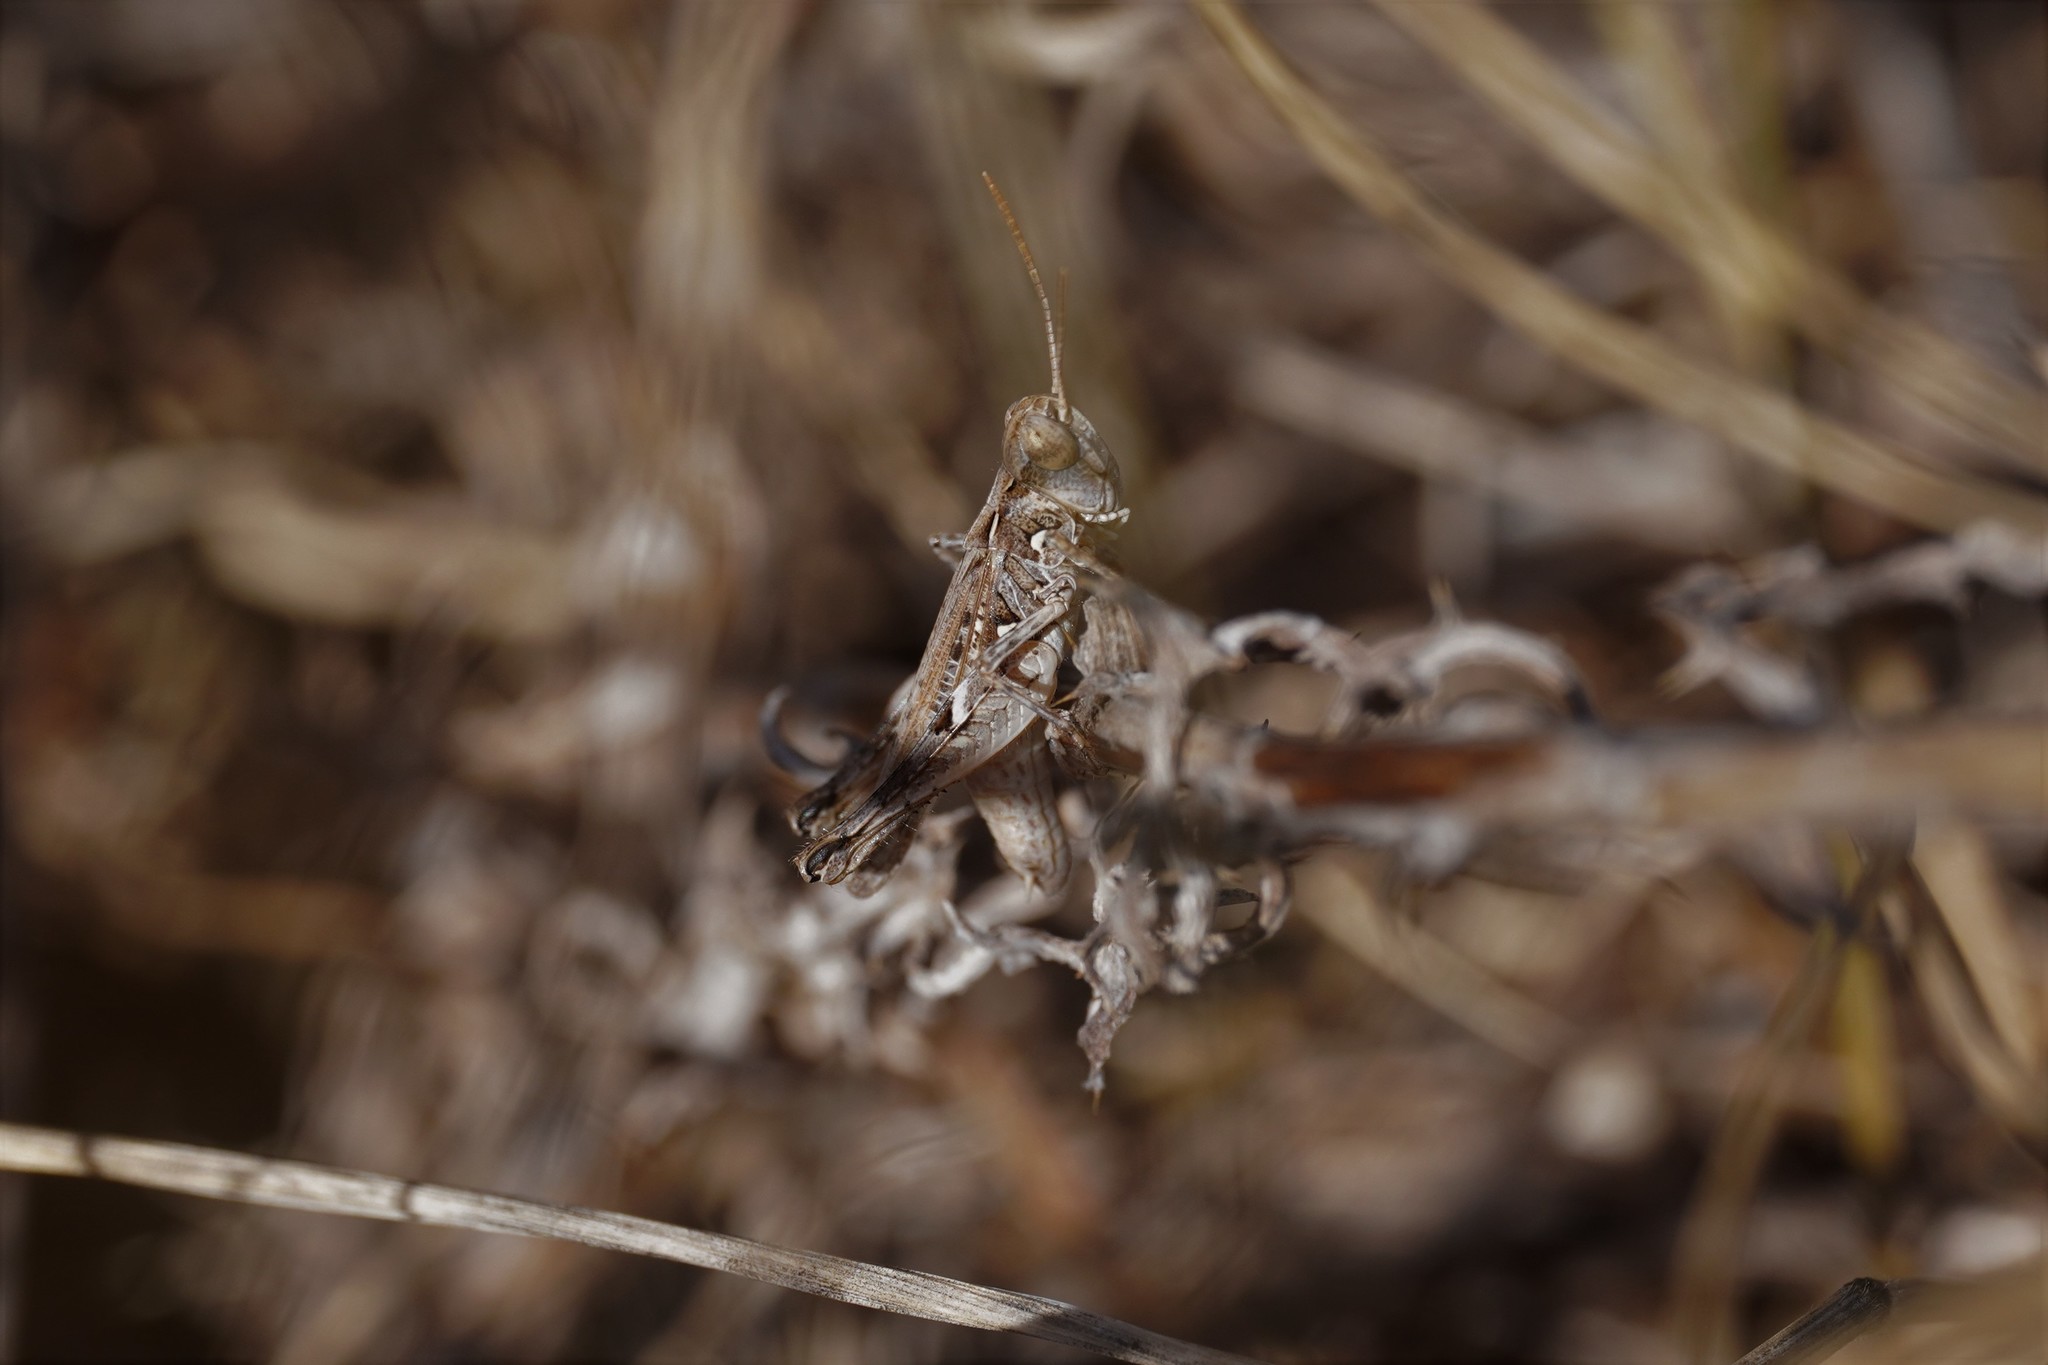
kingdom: Animalia
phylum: Arthropoda
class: Insecta
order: Orthoptera
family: Acrididae
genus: Dociostaurus
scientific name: Dociostaurus jagoi
